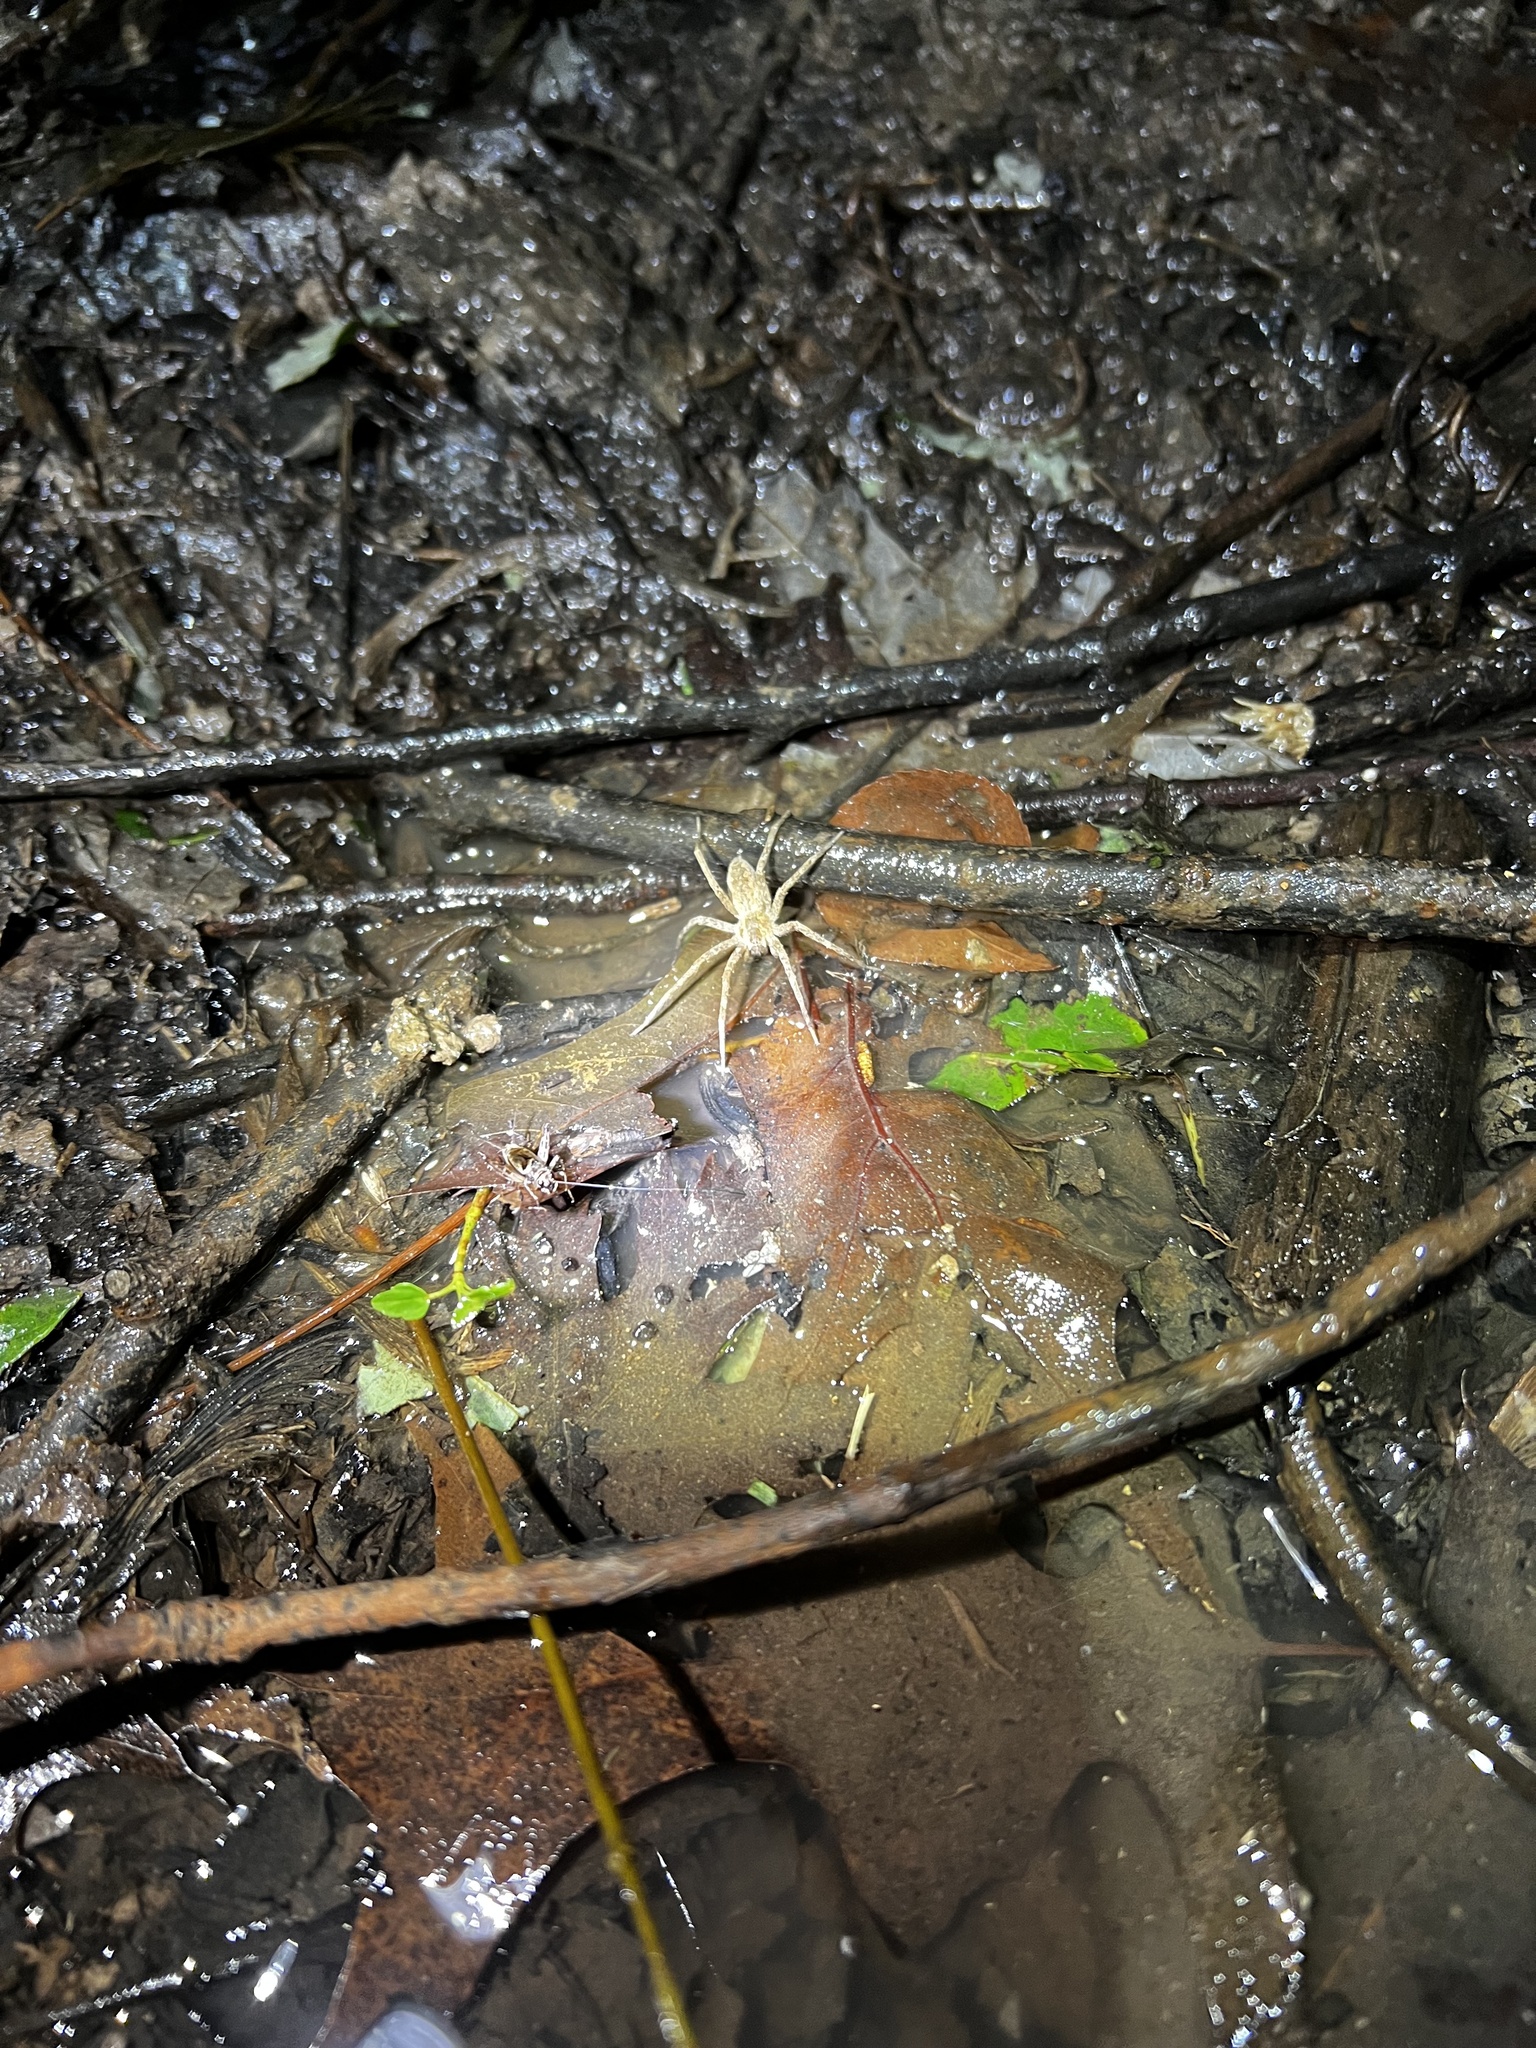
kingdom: Animalia
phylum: Arthropoda
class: Arachnida
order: Araneae
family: Pisauridae
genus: Pisaurina
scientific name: Pisaurina mira
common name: American nursery web spider
